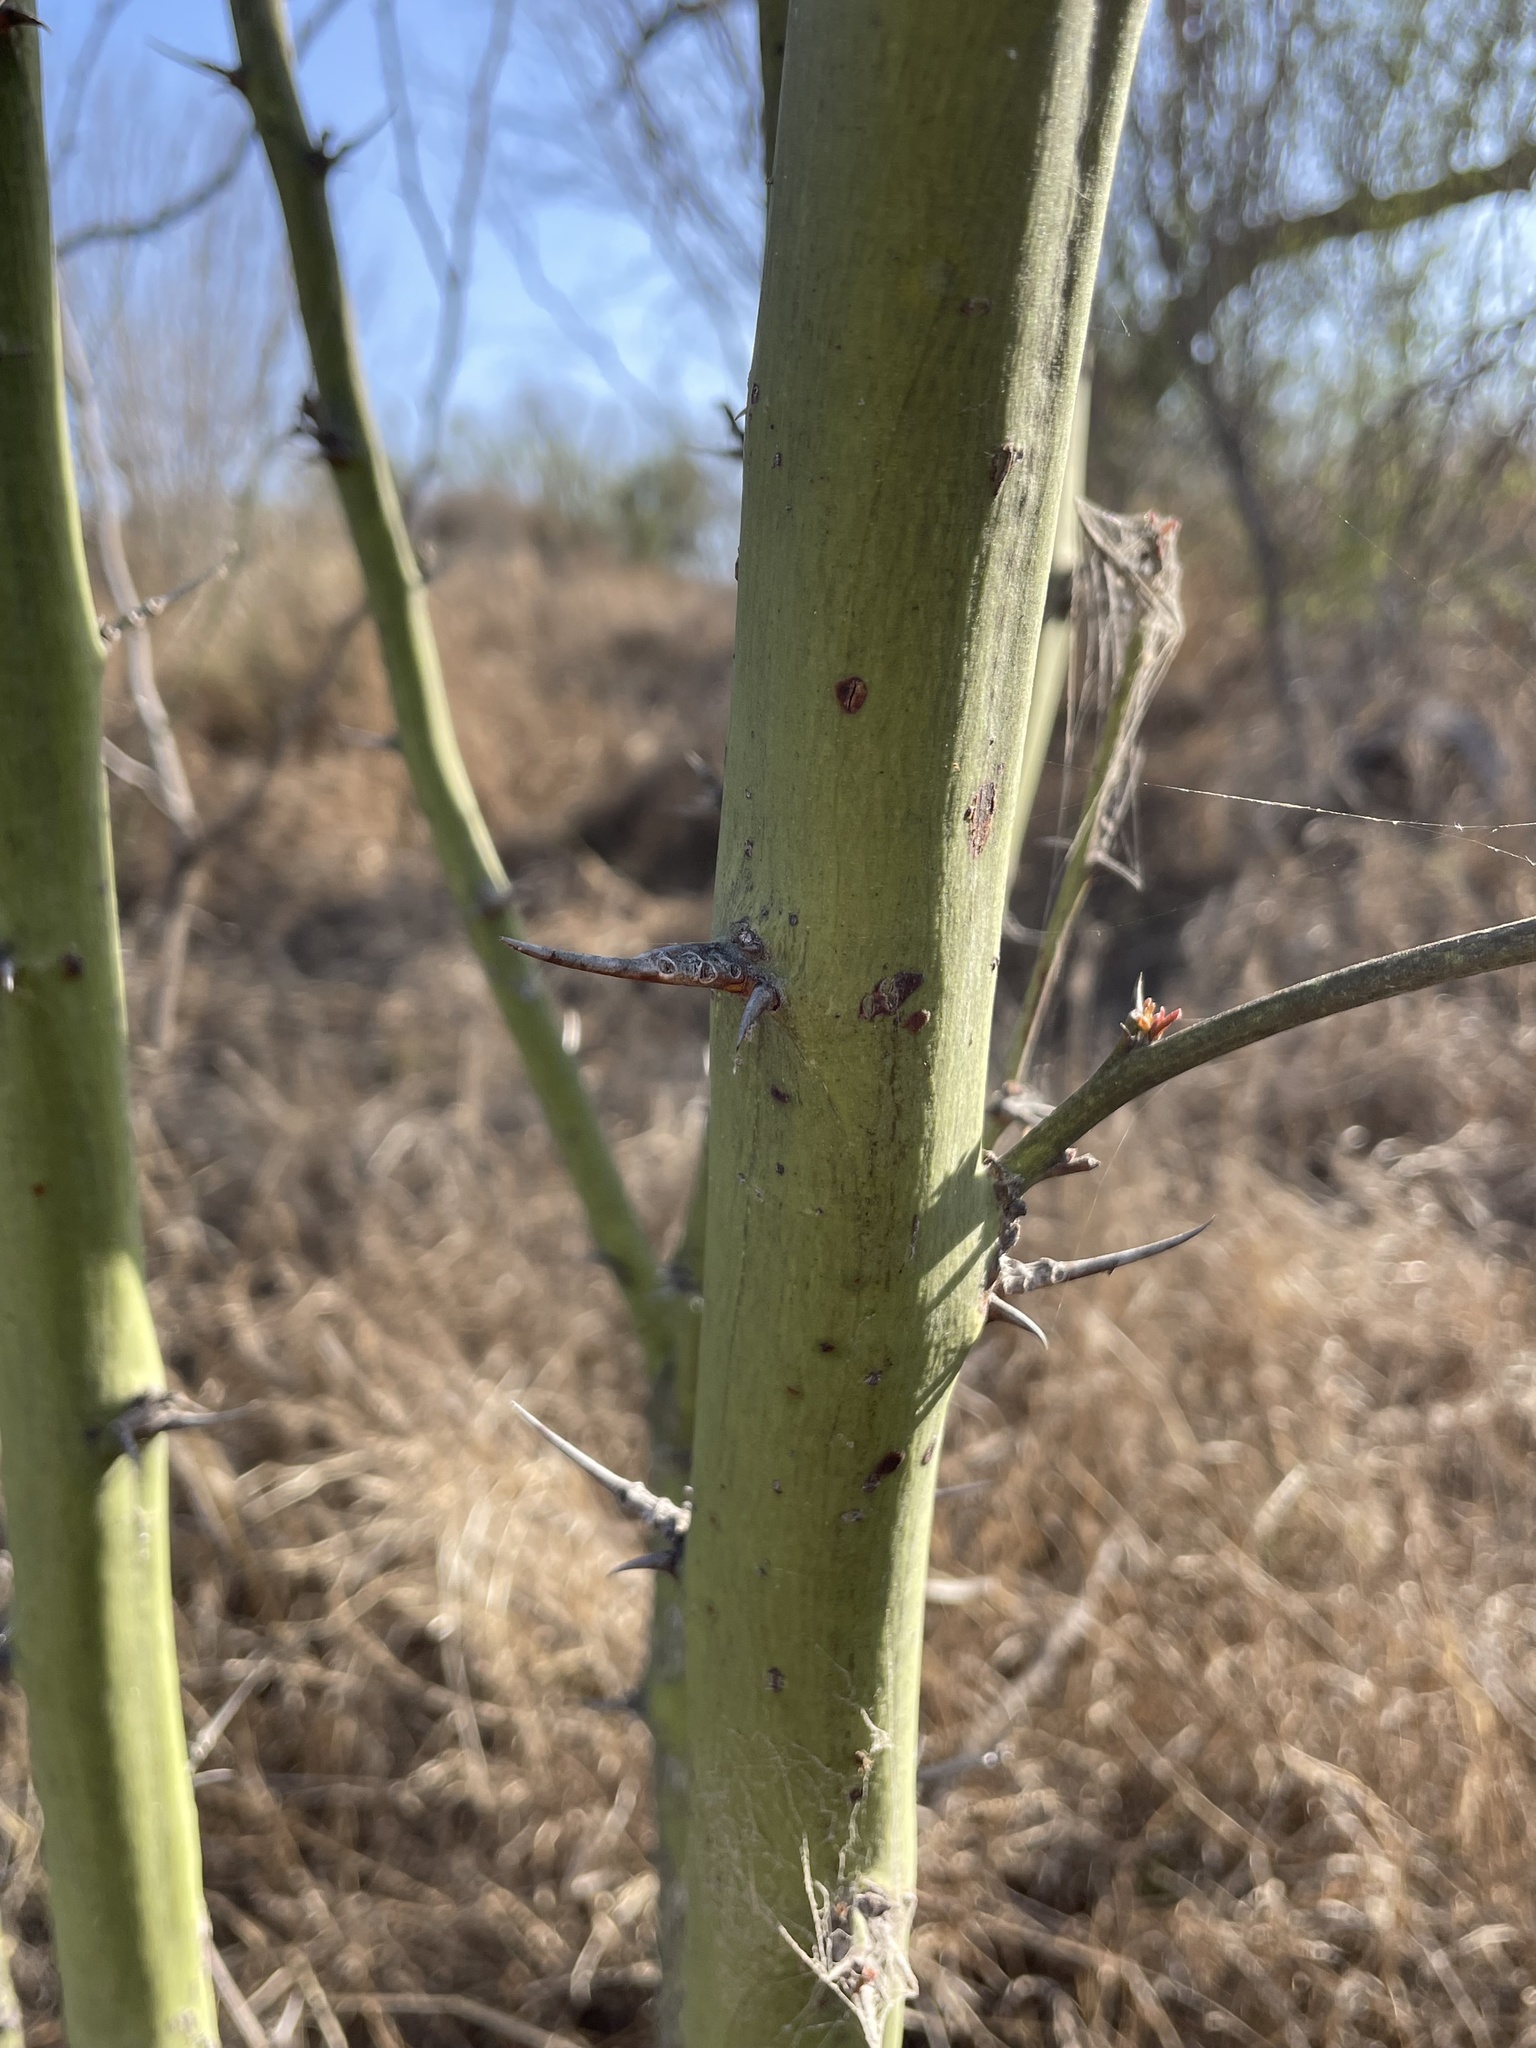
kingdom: Plantae
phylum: Tracheophyta
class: Magnoliopsida
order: Fabales
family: Fabaceae
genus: Parkinsonia
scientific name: Parkinsonia aculeata
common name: Jerusalem thorn
